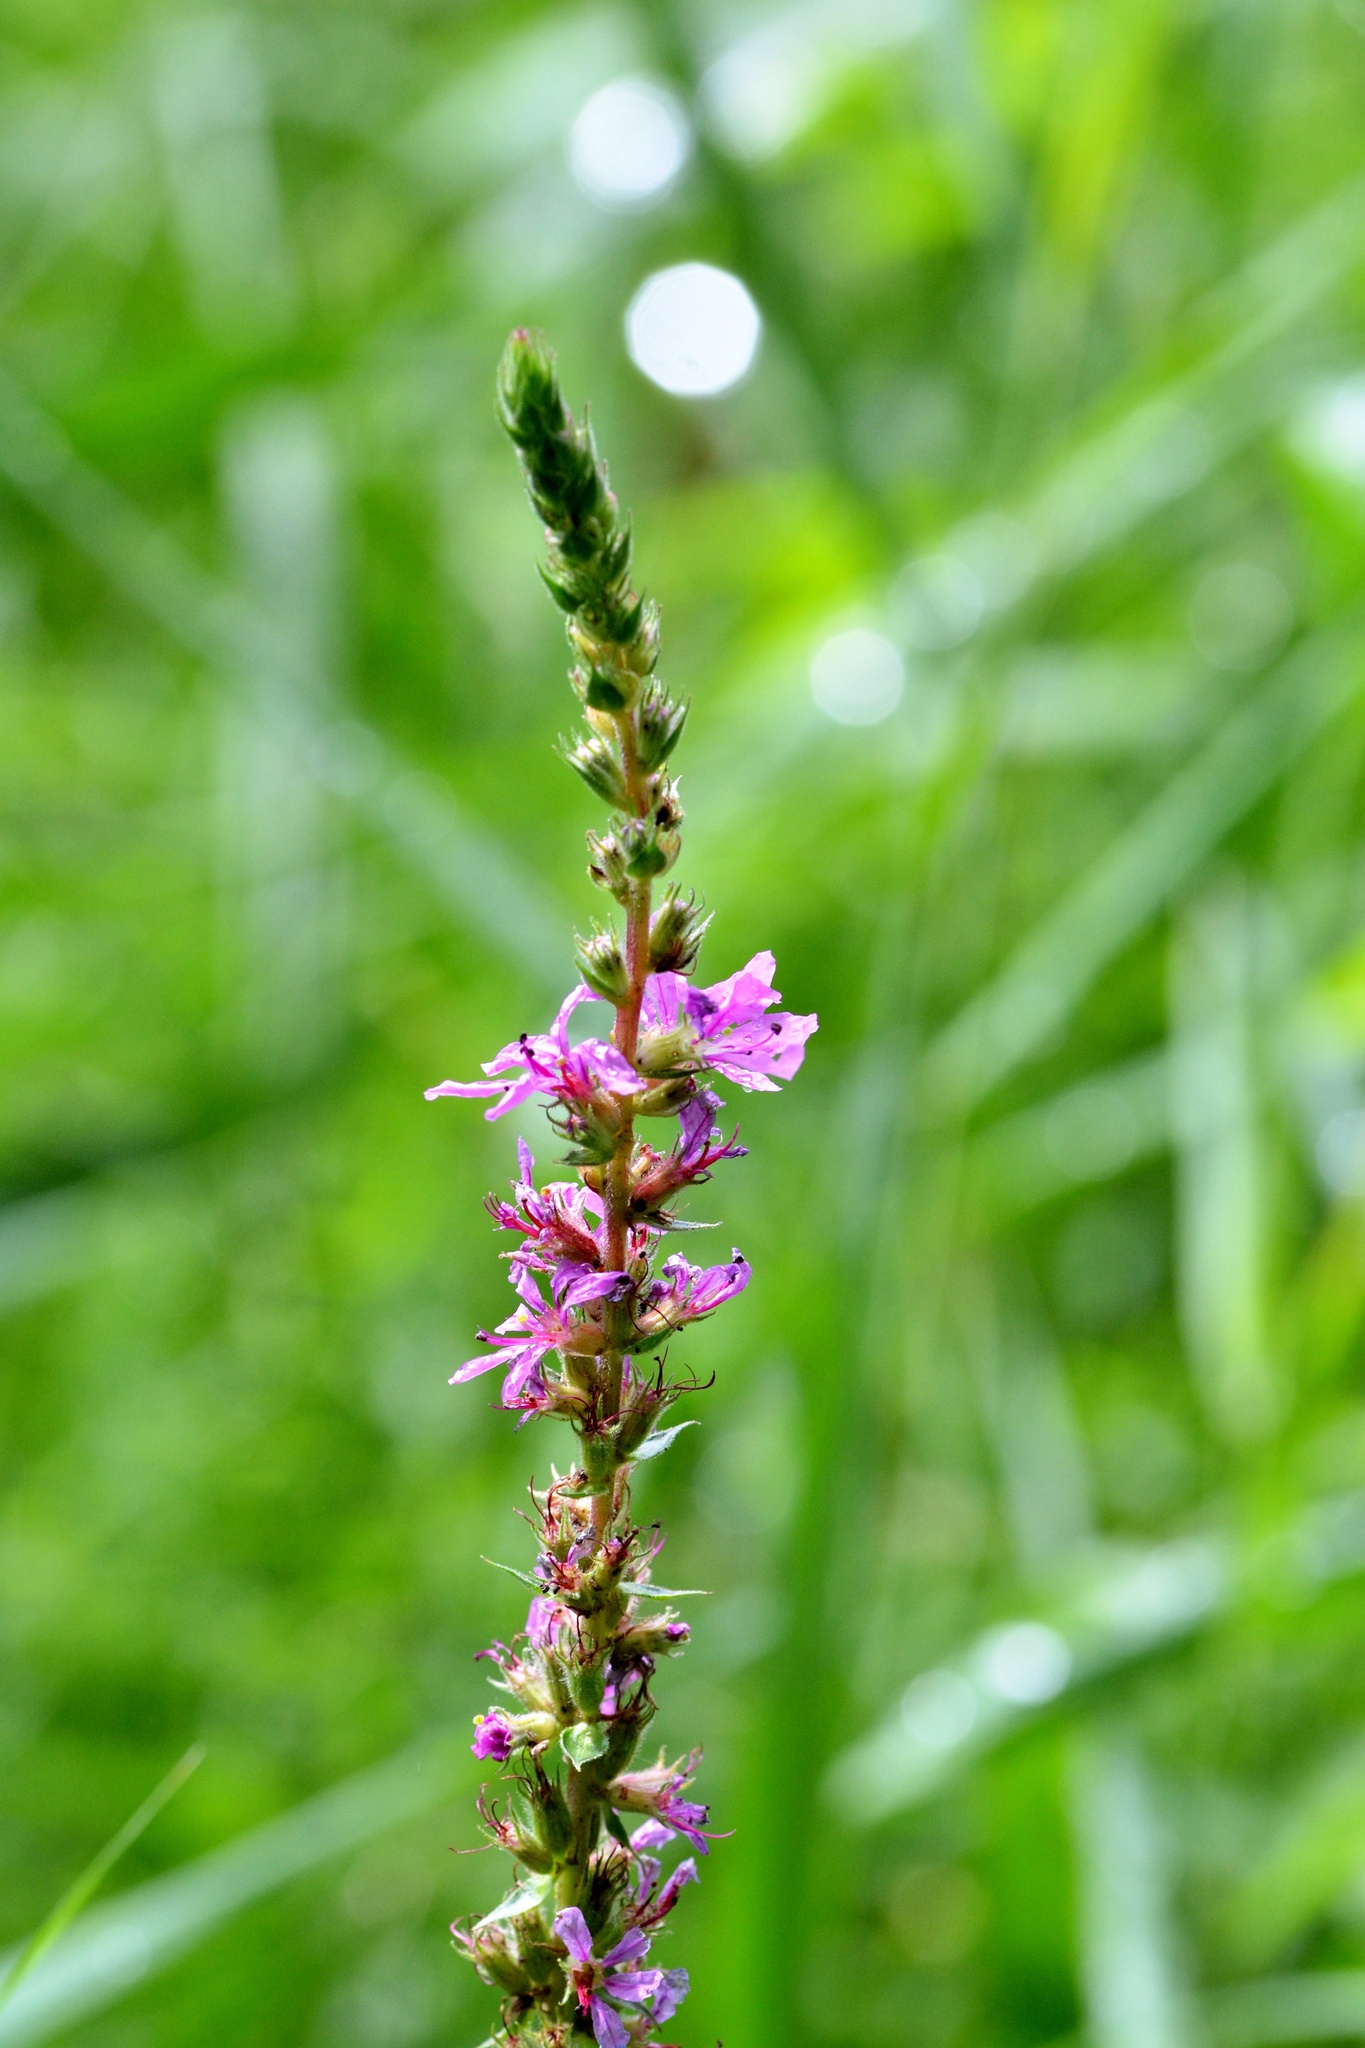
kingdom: Plantae
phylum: Tracheophyta
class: Magnoliopsida
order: Myrtales
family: Lythraceae
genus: Lythrum
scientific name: Lythrum salicaria
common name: Purple loosestrife
